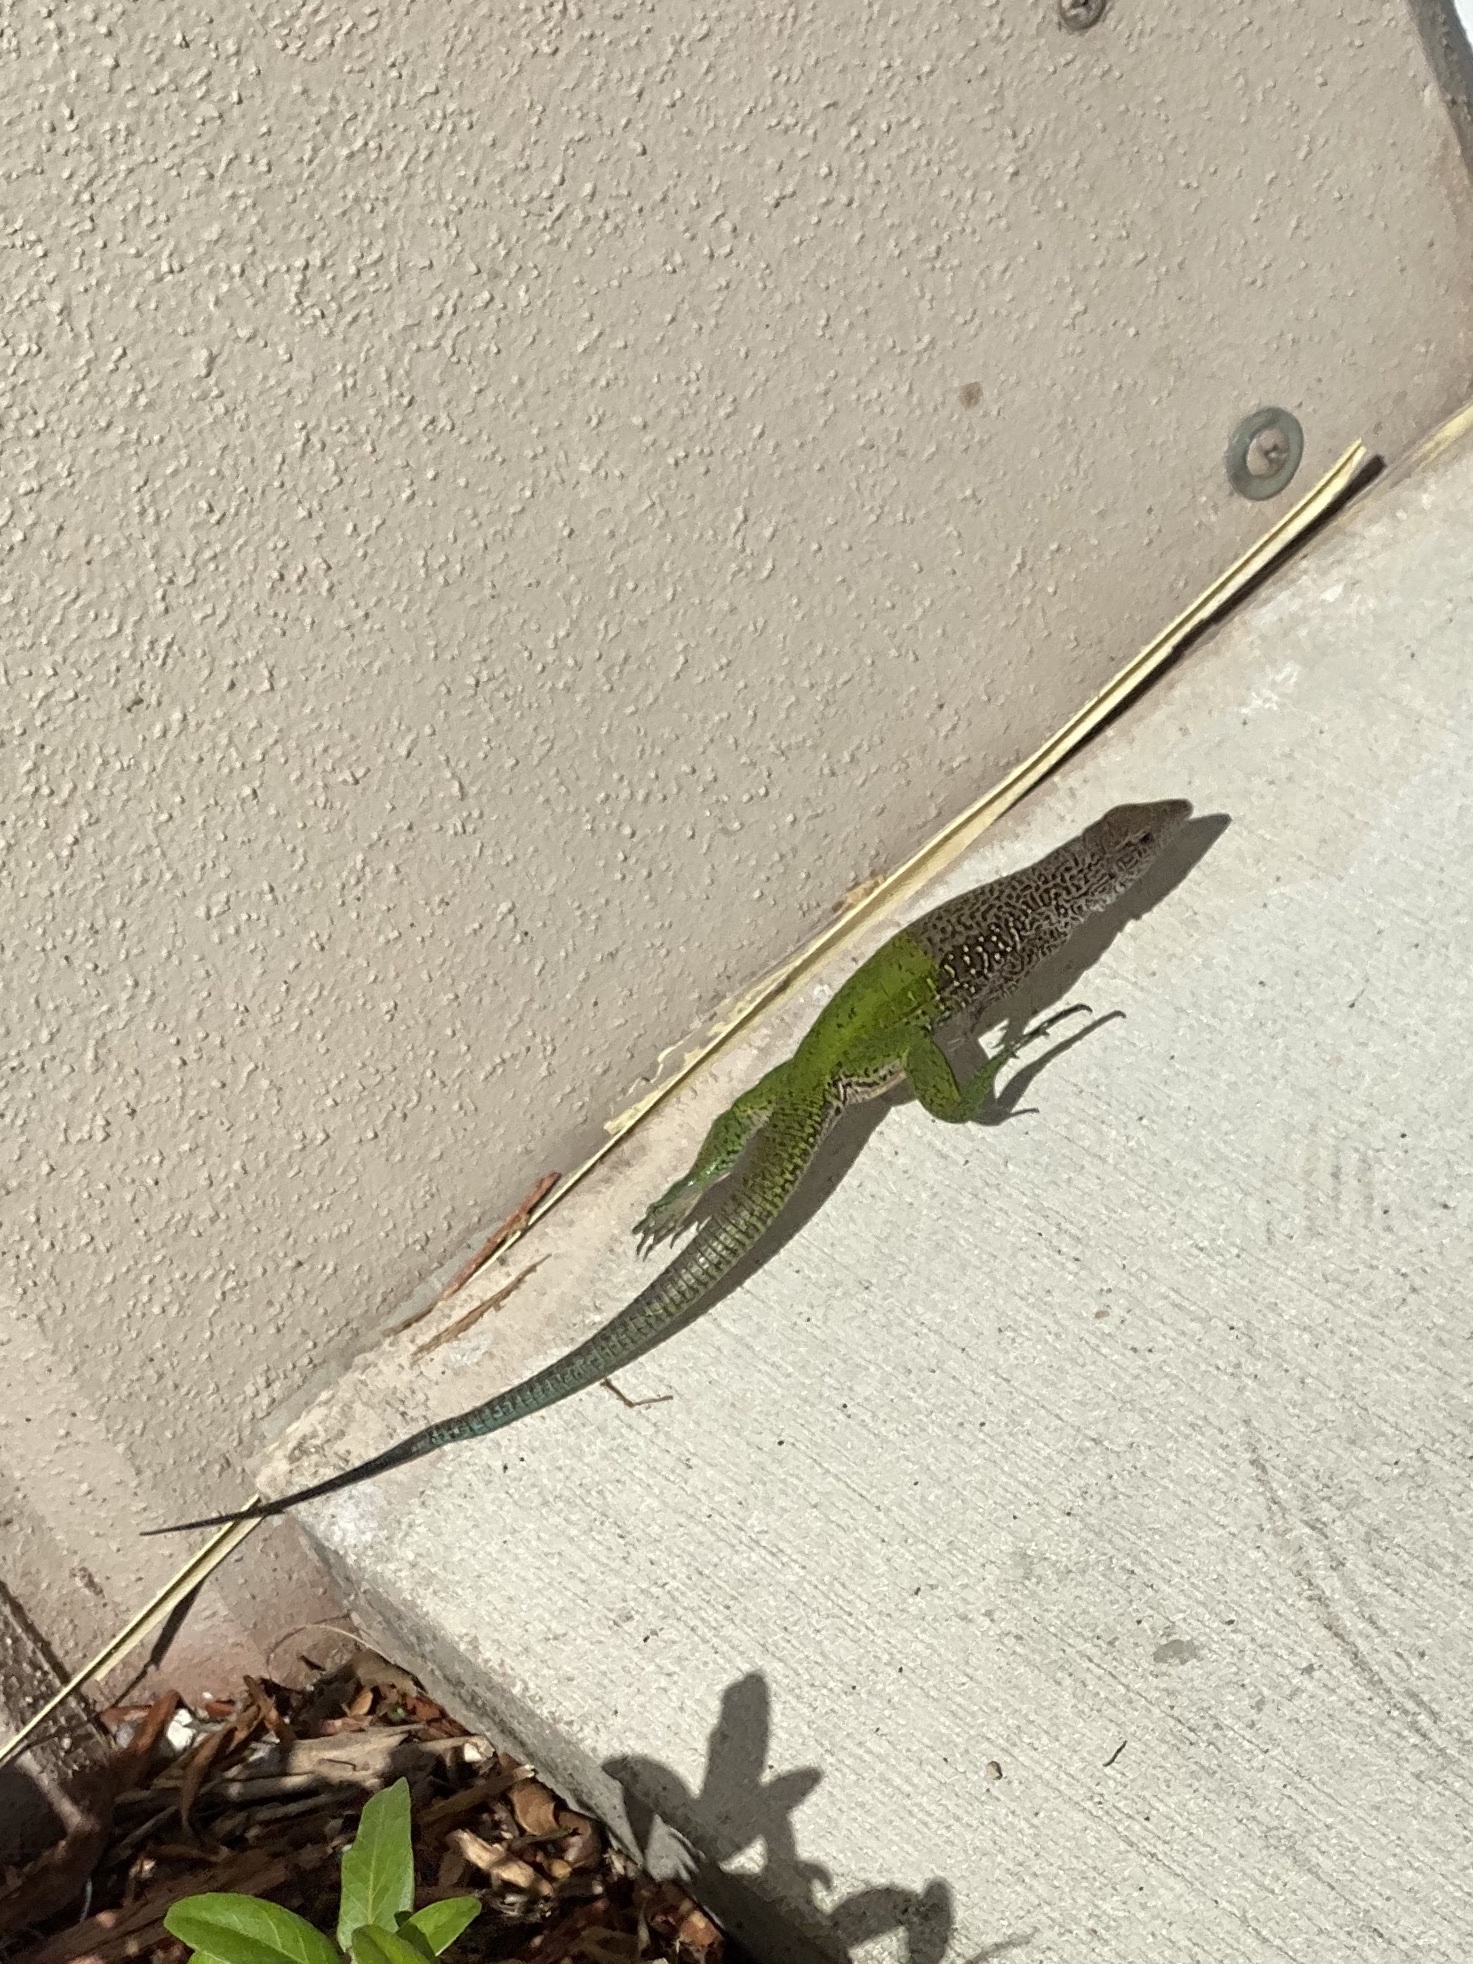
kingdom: Animalia
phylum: Chordata
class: Squamata
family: Teiidae
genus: Ameiva
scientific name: Ameiva ameiva
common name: Giant ameiva
